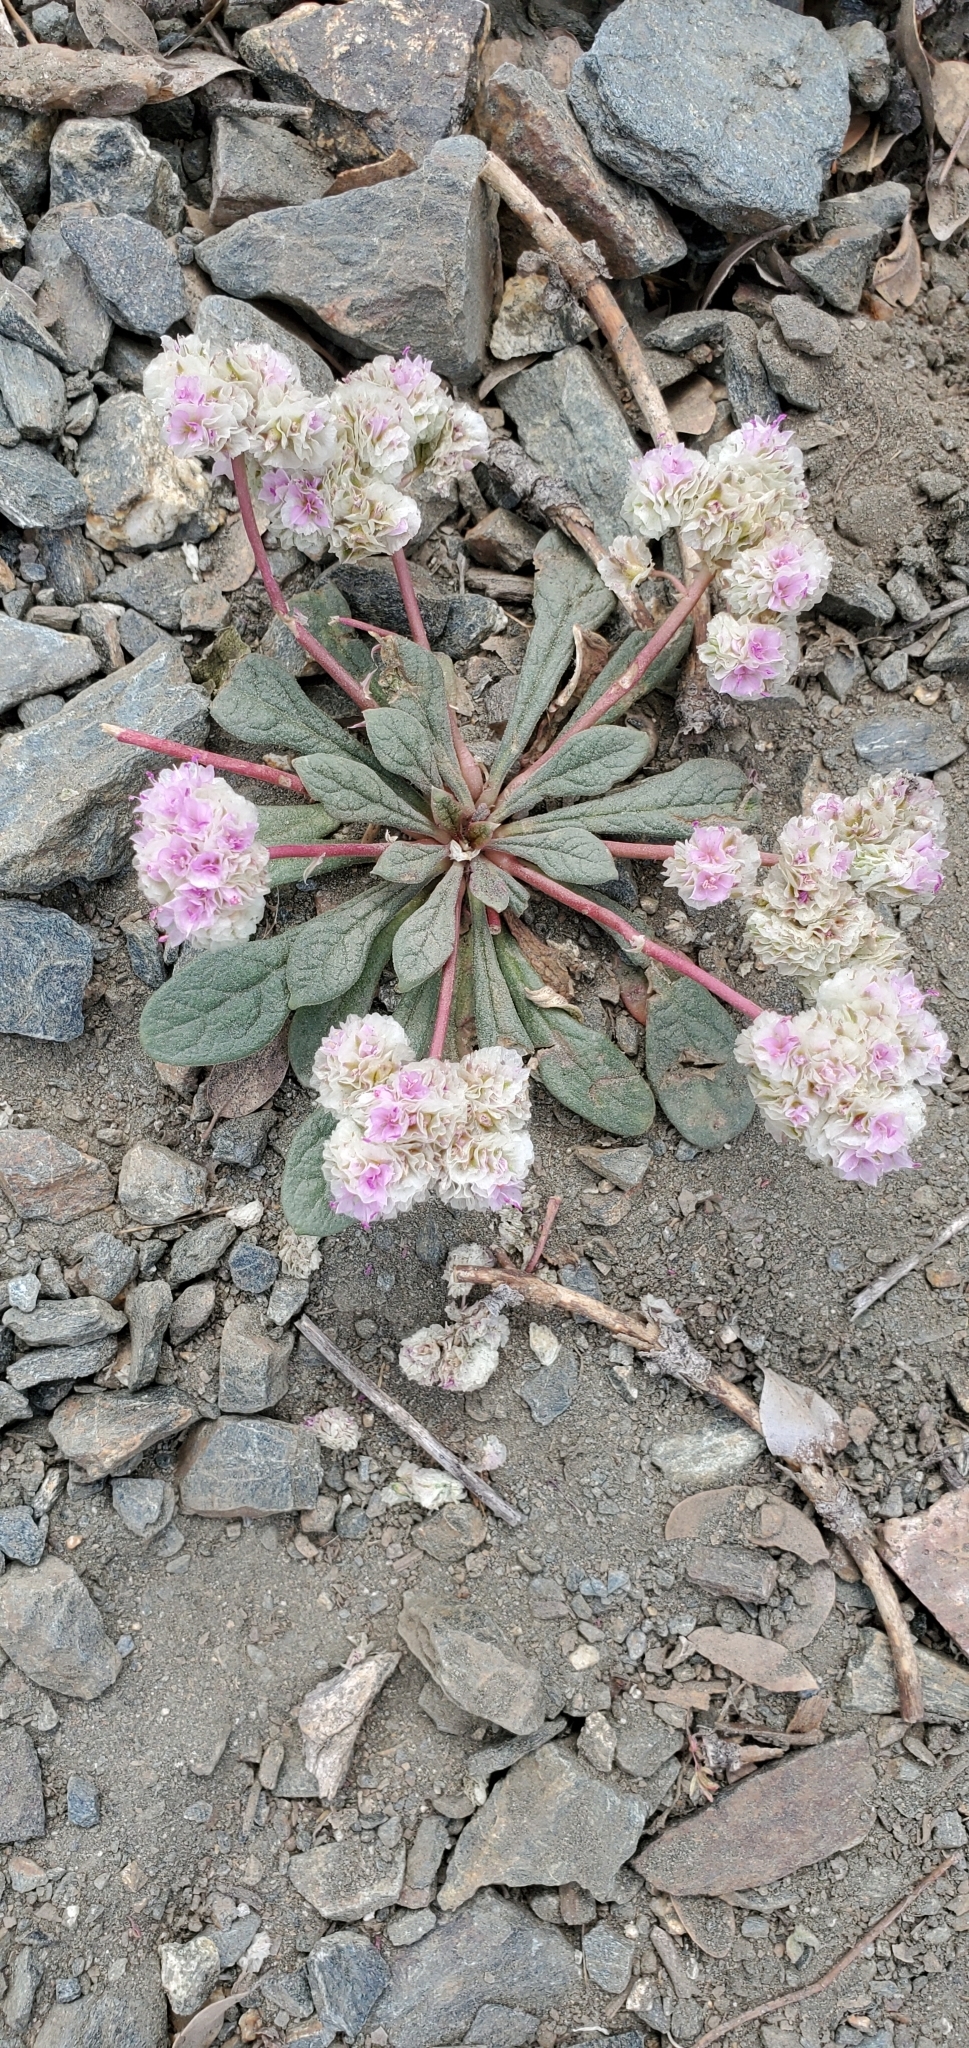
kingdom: Plantae
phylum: Tracheophyta
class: Magnoliopsida
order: Caryophyllales
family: Montiaceae
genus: Calyptridium
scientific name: Calyptridium monospermum
